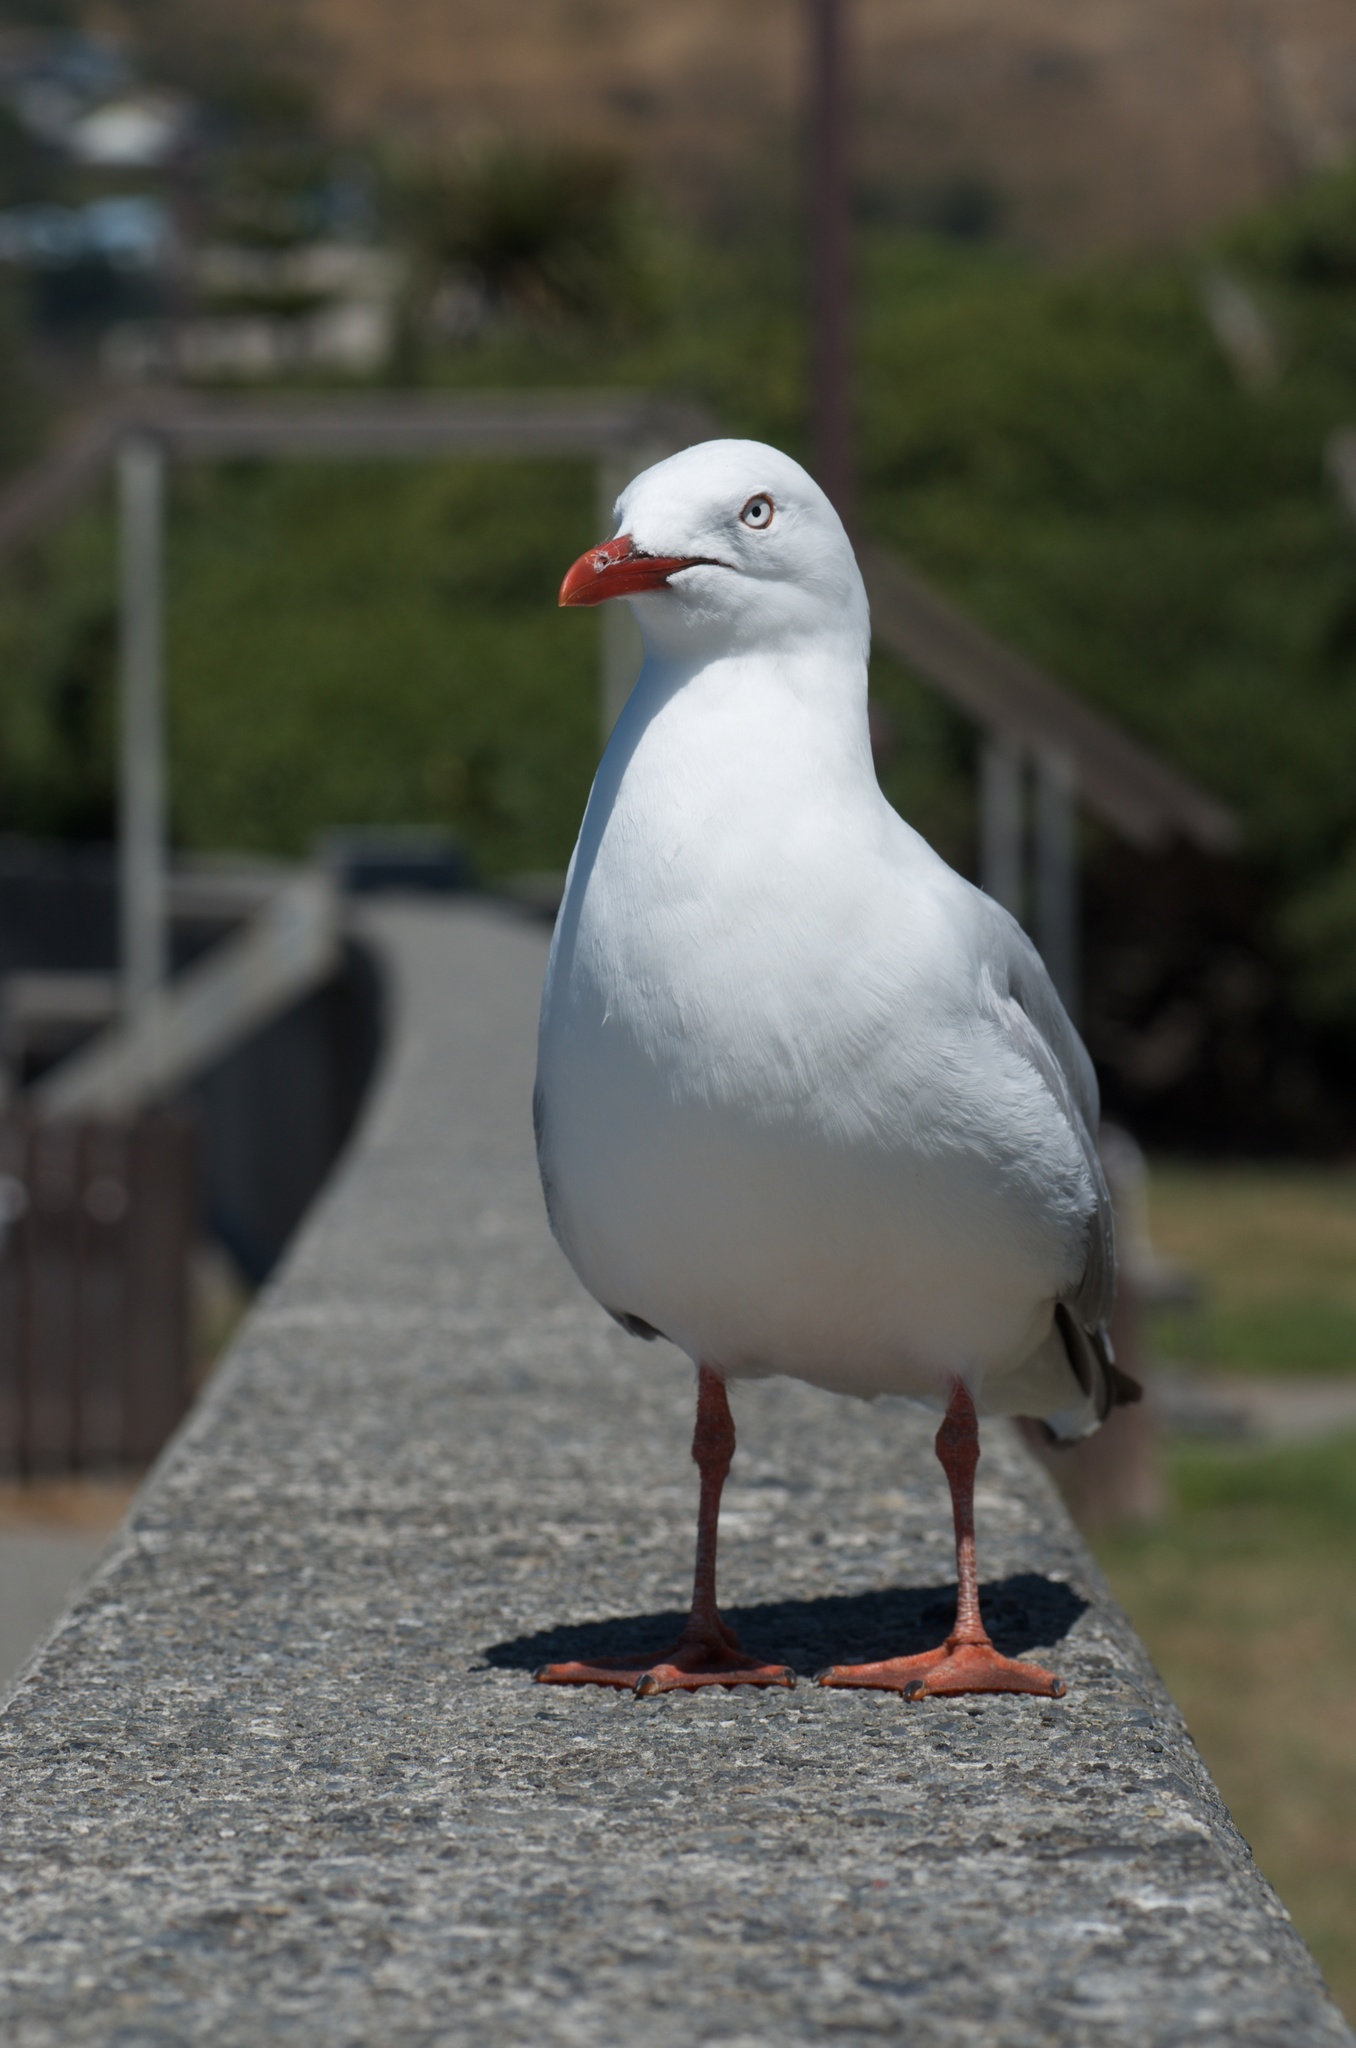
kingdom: Animalia
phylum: Chordata
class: Aves
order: Charadriiformes
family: Laridae
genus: Chroicocephalus
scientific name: Chroicocephalus novaehollandiae
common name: Silver gull
